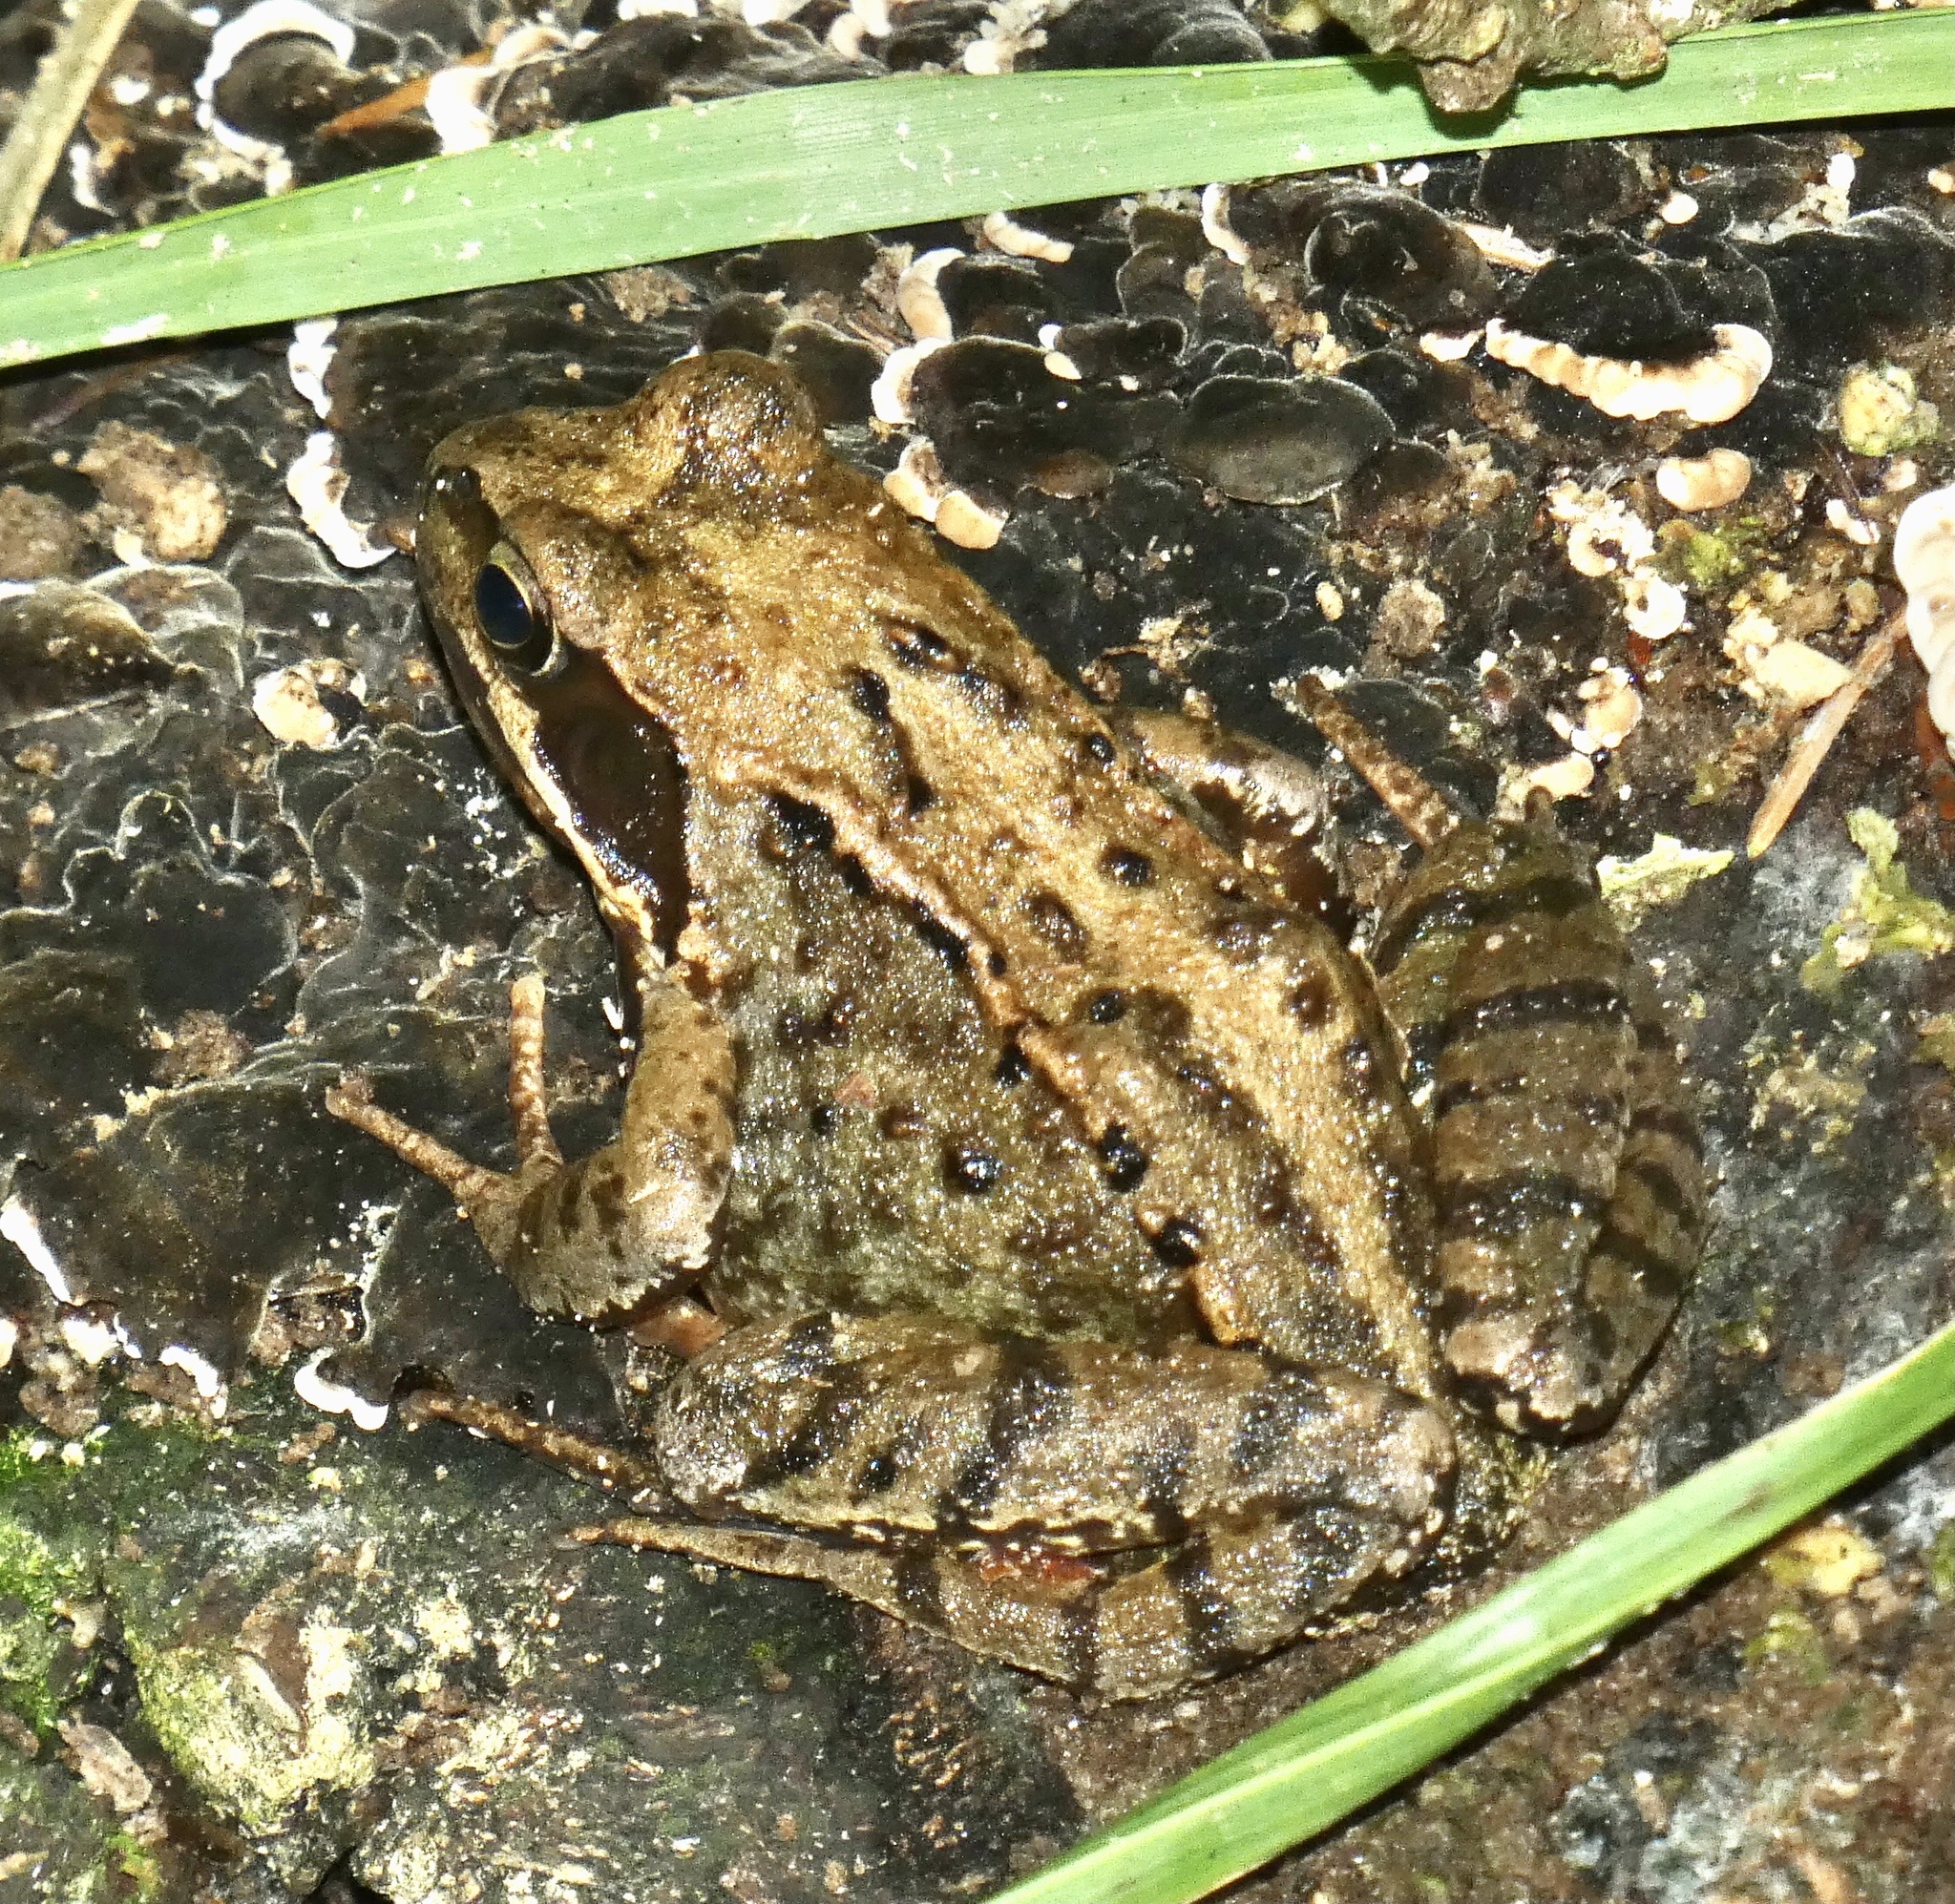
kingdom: Animalia
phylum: Chordata
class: Amphibia
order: Anura
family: Ranidae
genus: Rana
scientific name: Rana temporaria
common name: Common frog
